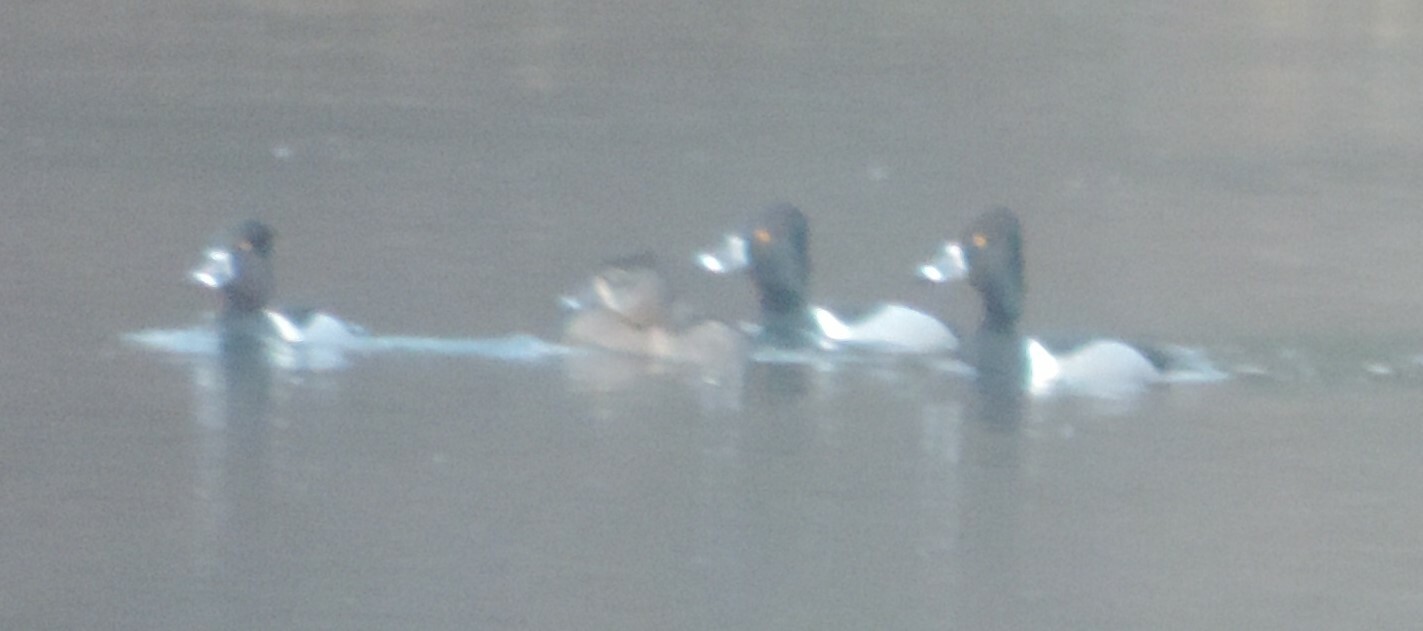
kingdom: Animalia
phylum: Chordata
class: Aves
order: Anseriformes
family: Anatidae
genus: Aythya
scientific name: Aythya collaris
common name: Ring-necked duck
